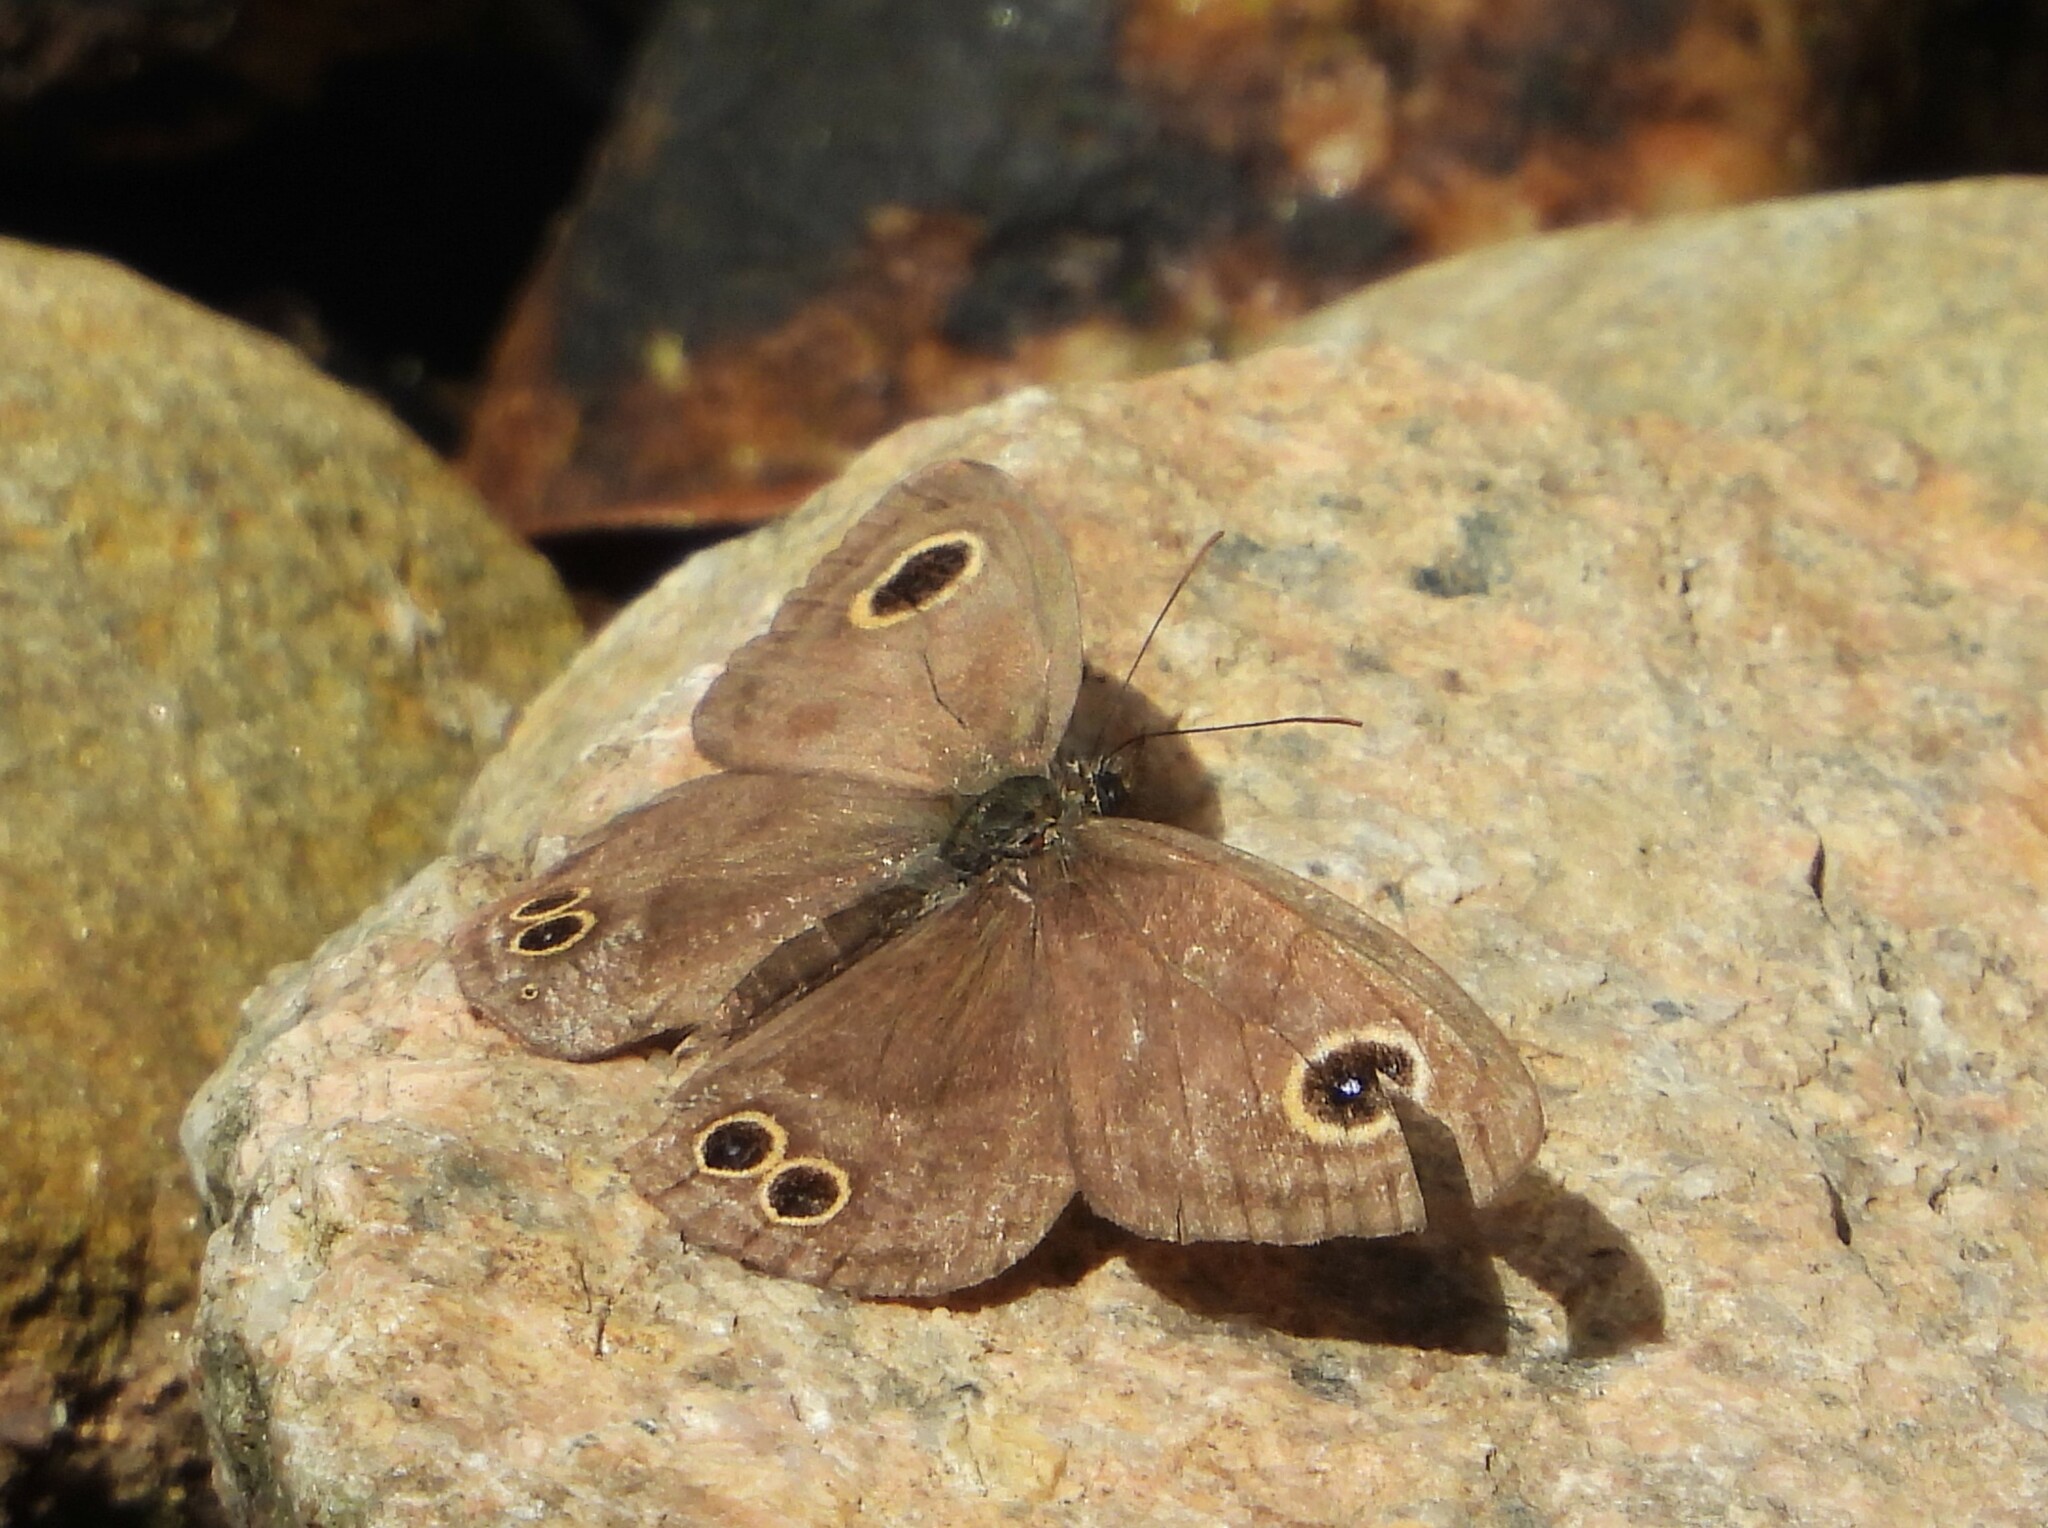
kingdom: Animalia
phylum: Arthropoda
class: Insecta
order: Lepidoptera
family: Nymphalidae
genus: Ypthima
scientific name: Ypthima baldus
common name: Common five-ring
